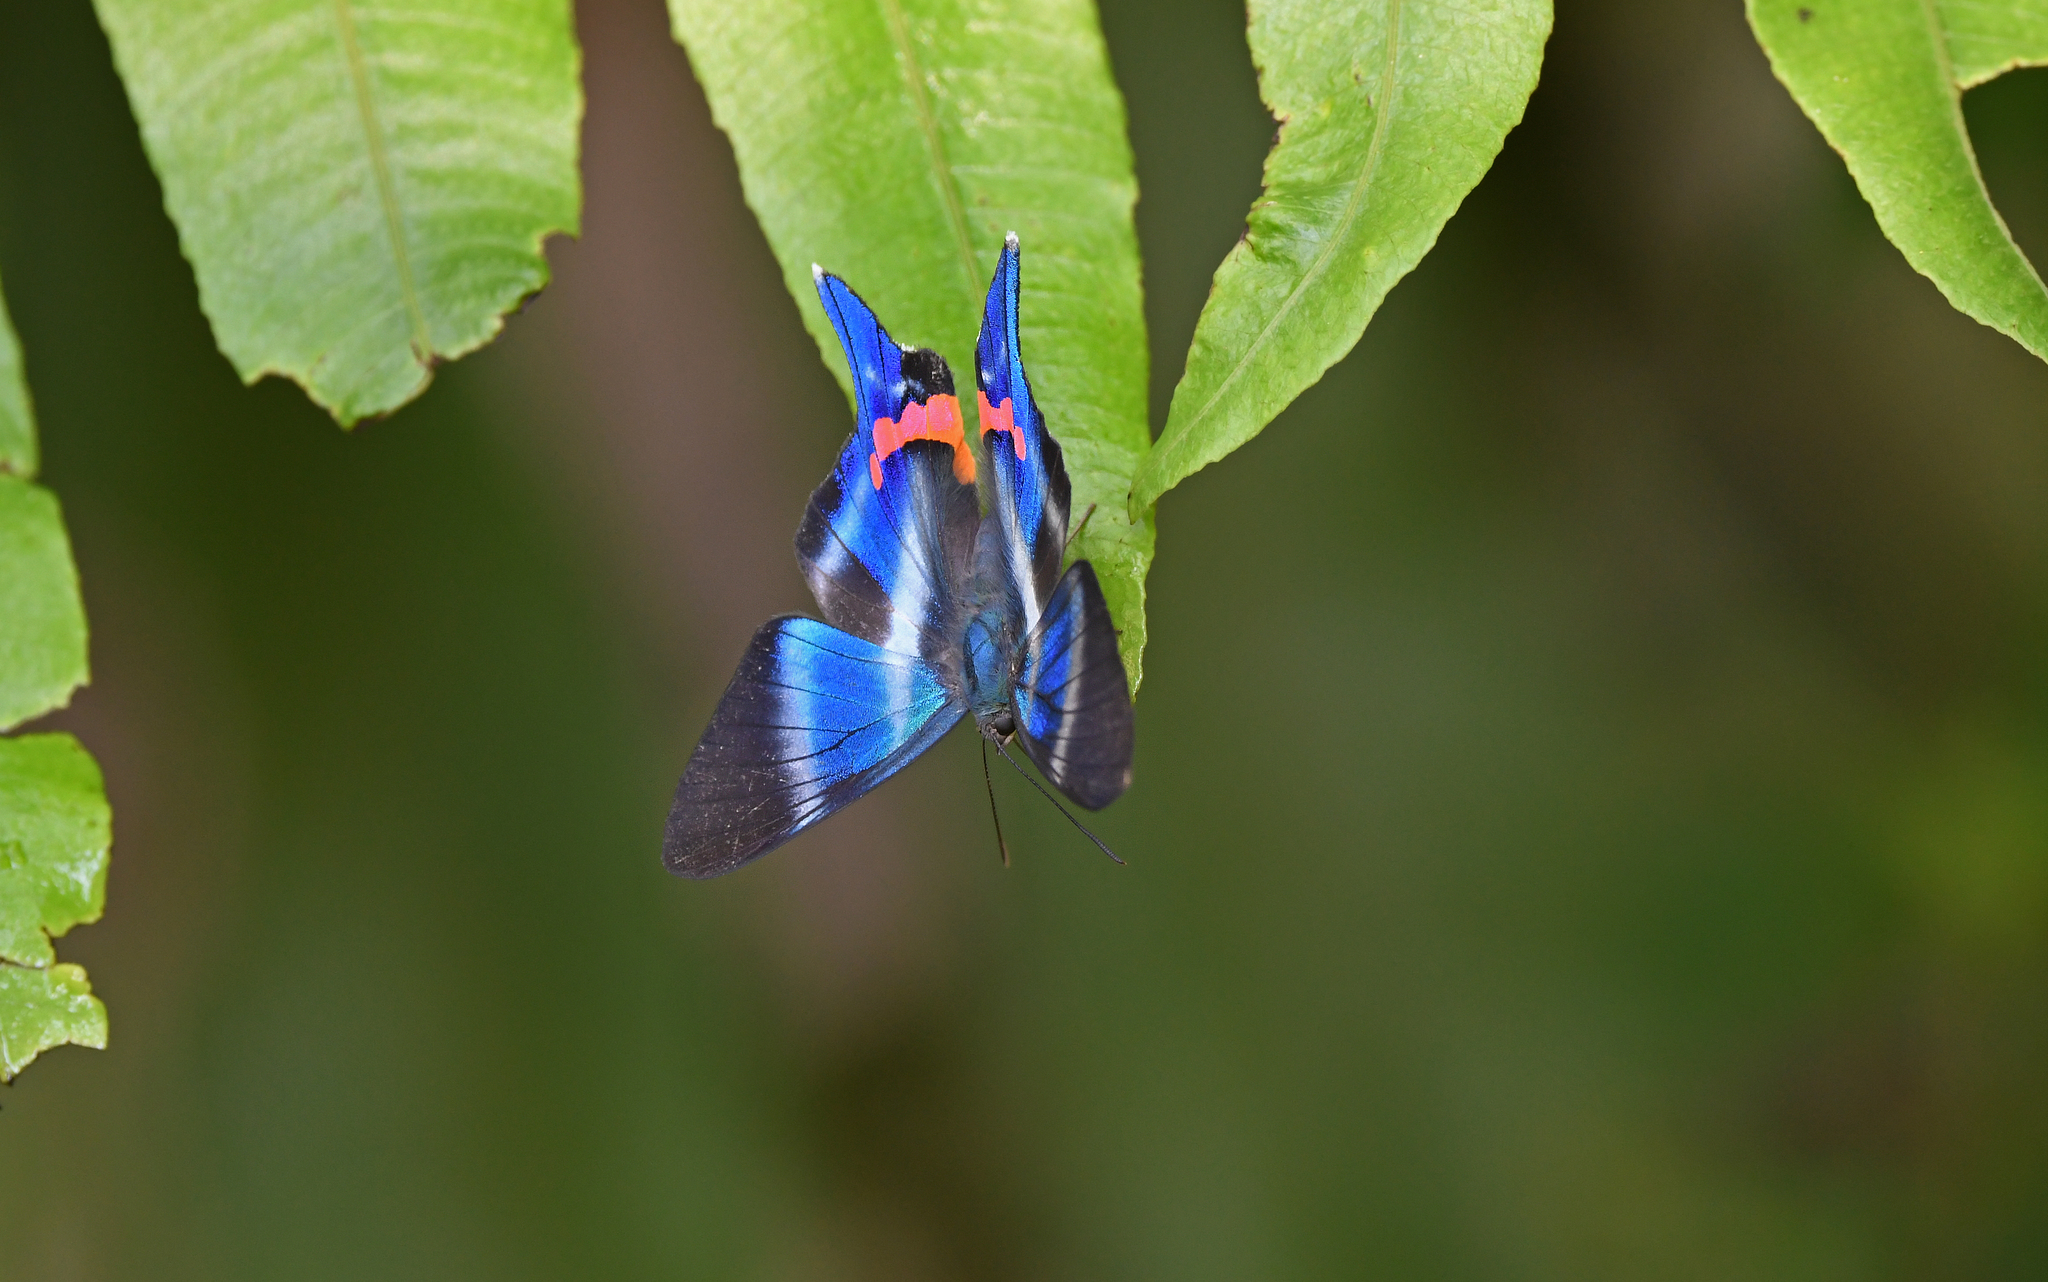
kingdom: Animalia
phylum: Arthropoda
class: Insecta
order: Lepidoptera
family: Riodinidae
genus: Rhetus
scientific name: Rhetus dysonii
